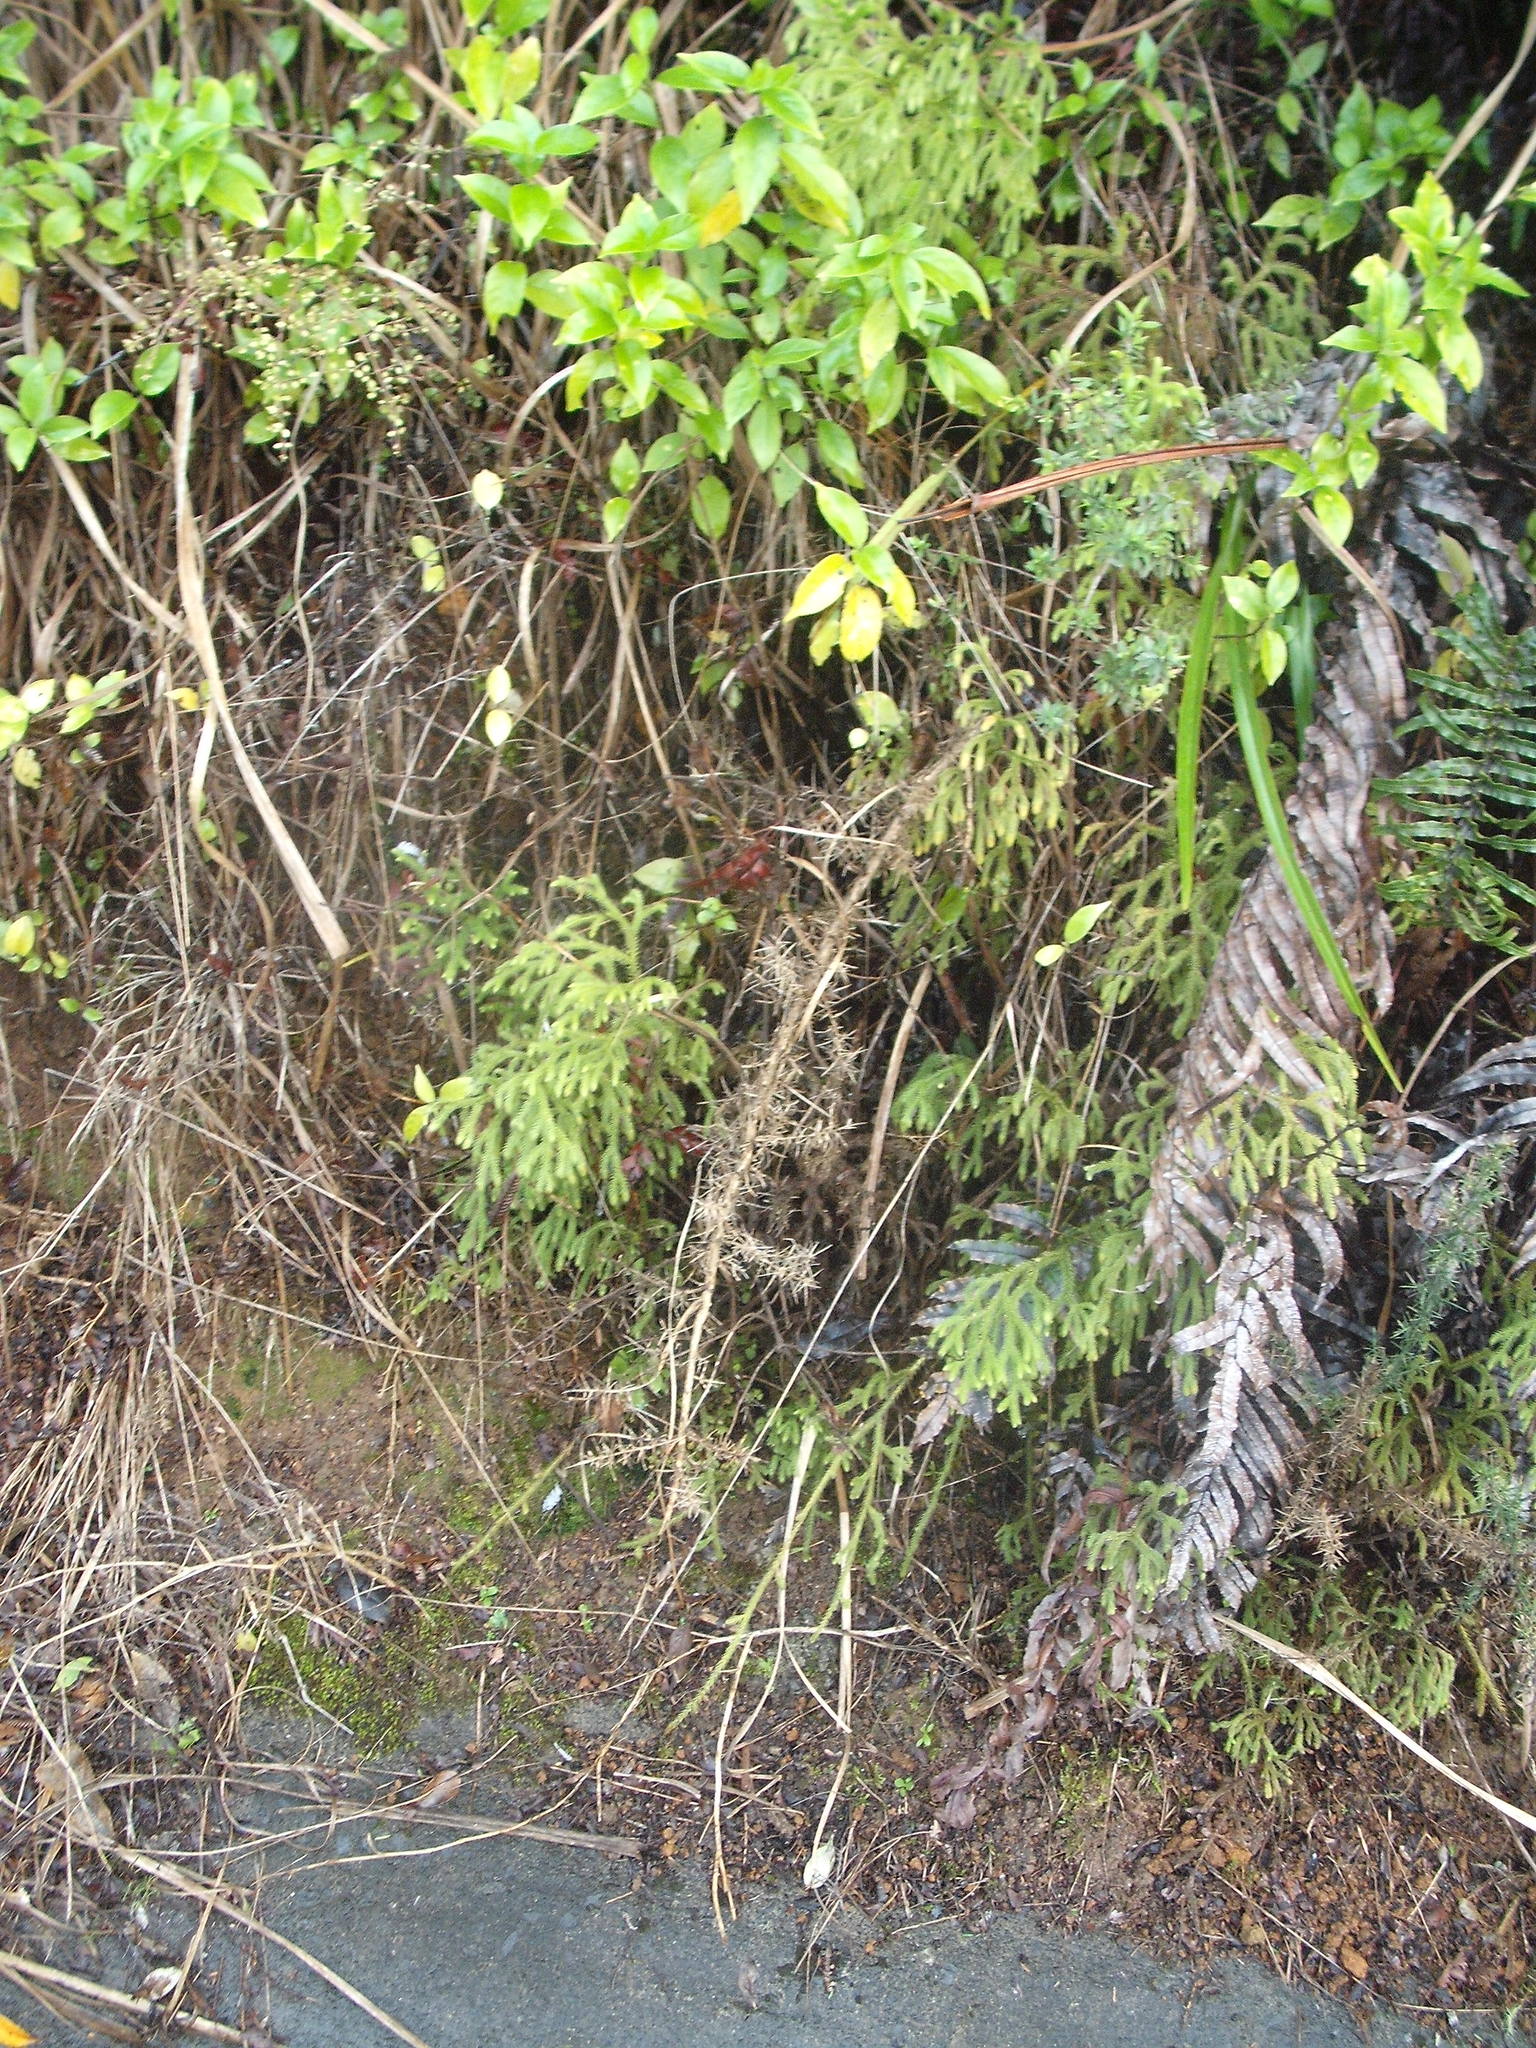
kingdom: Plantae
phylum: Tracheophyta
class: Lycopodiopsida
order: Lycopodiales
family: Lycopodiaceae
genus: Palhinhaea
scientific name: Palhinhaea cernua
